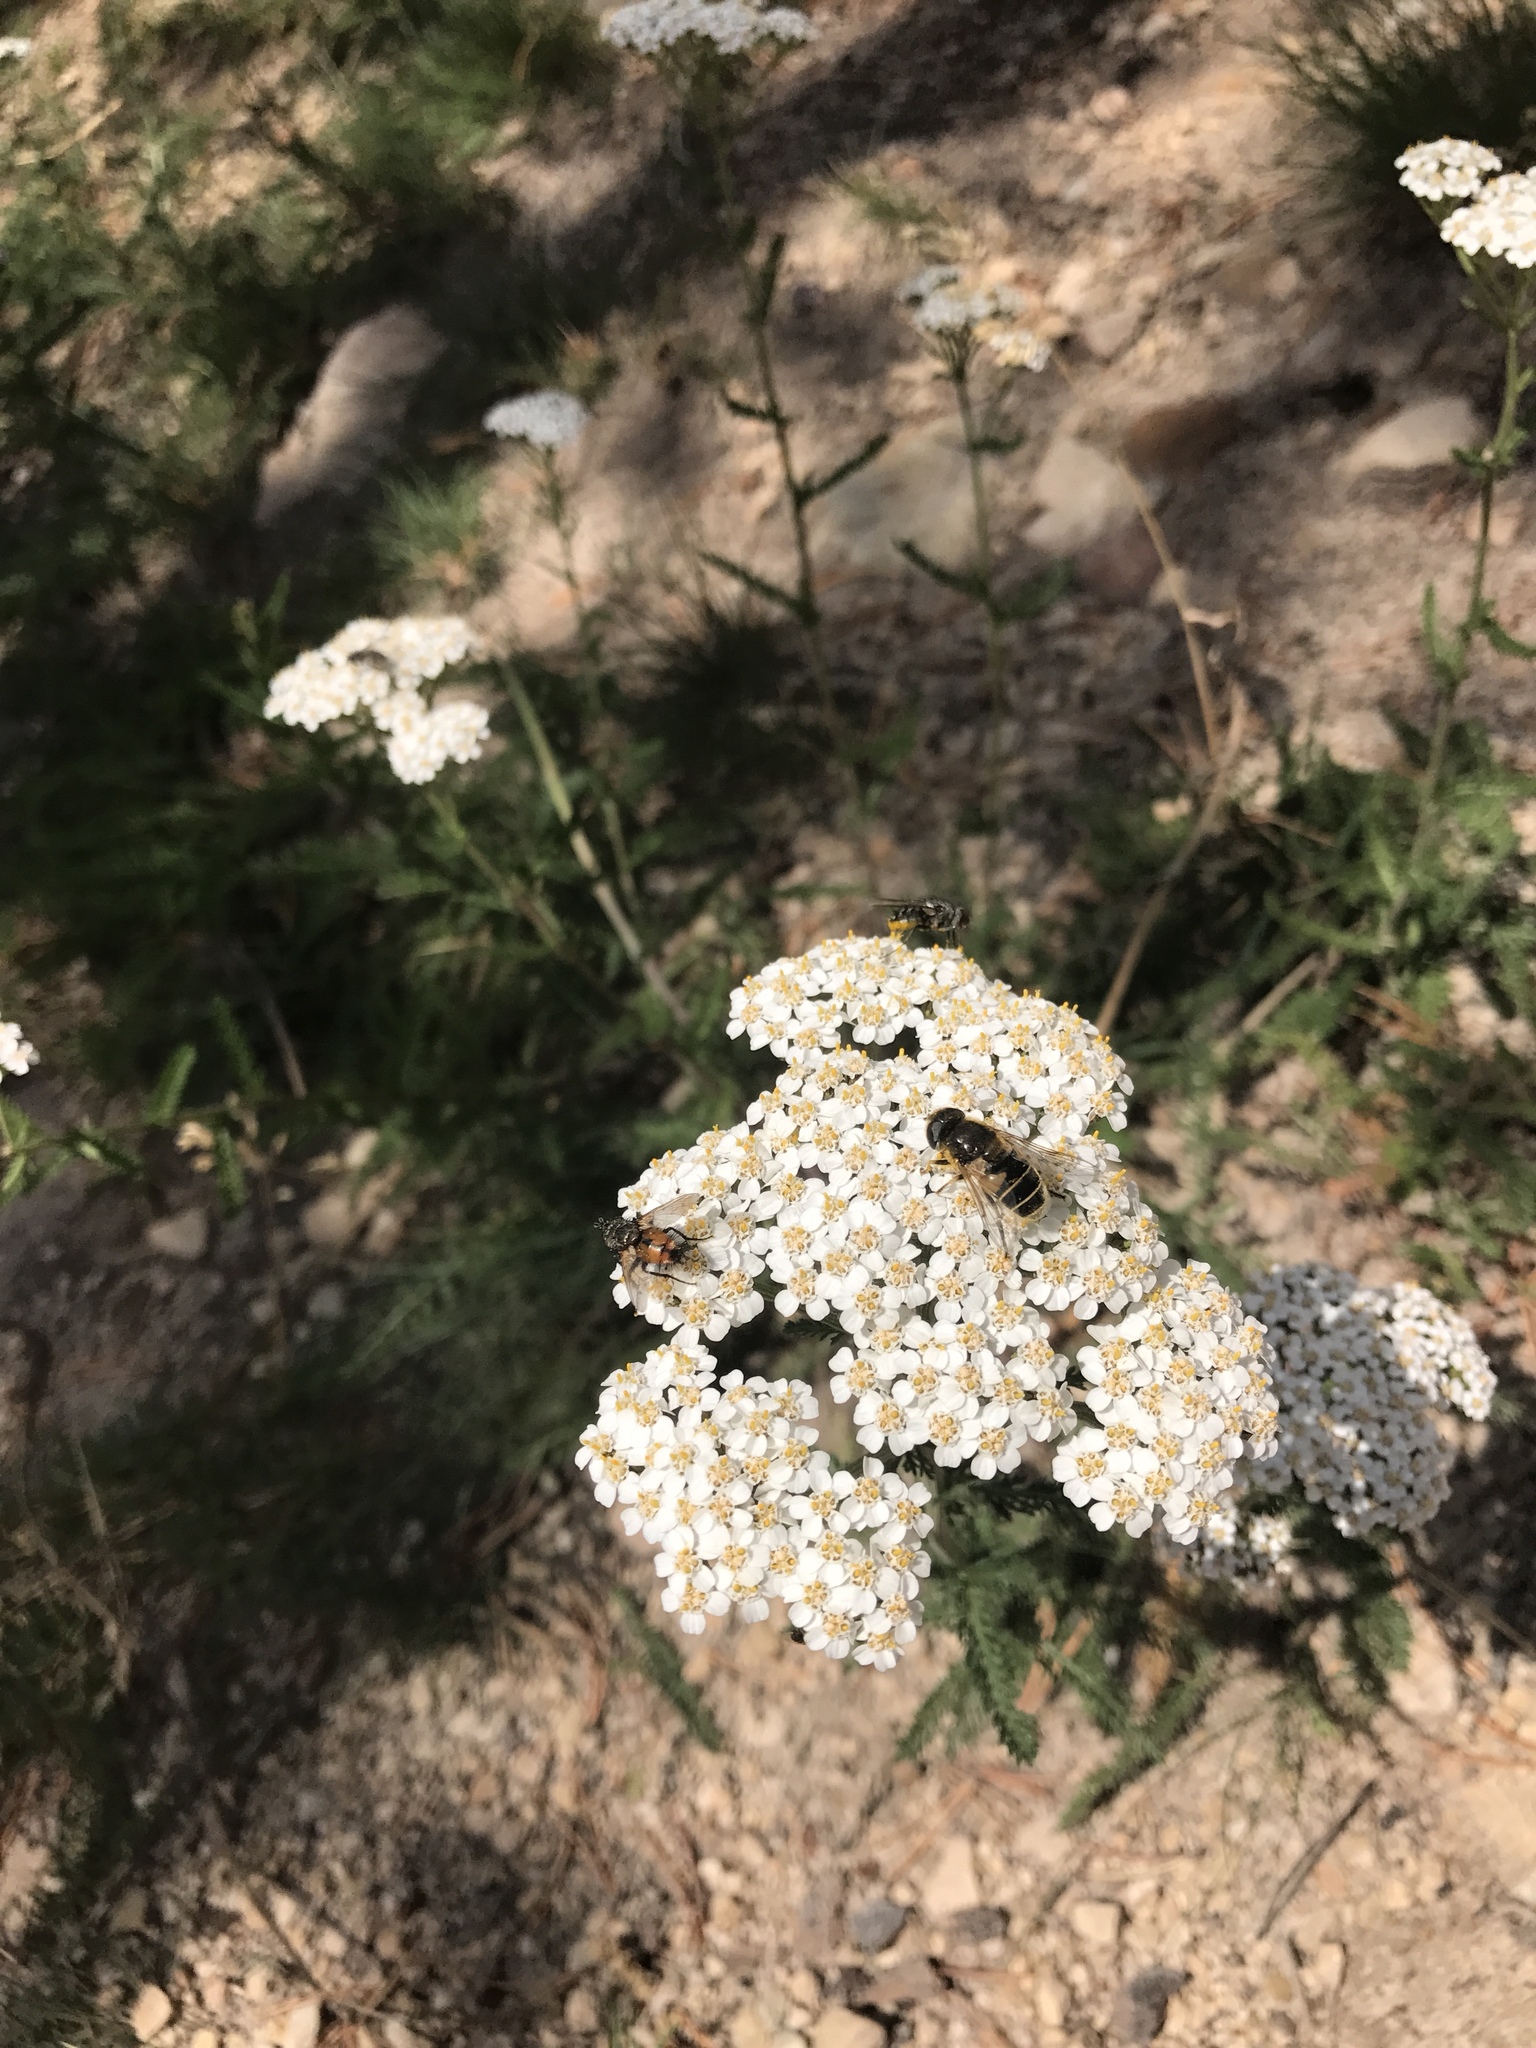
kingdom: Plantae
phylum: Tracheophyta
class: Magnoliopsida
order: Asterales
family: Asteraceae
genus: Achillea
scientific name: Achillea millefolium
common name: Yarrow
